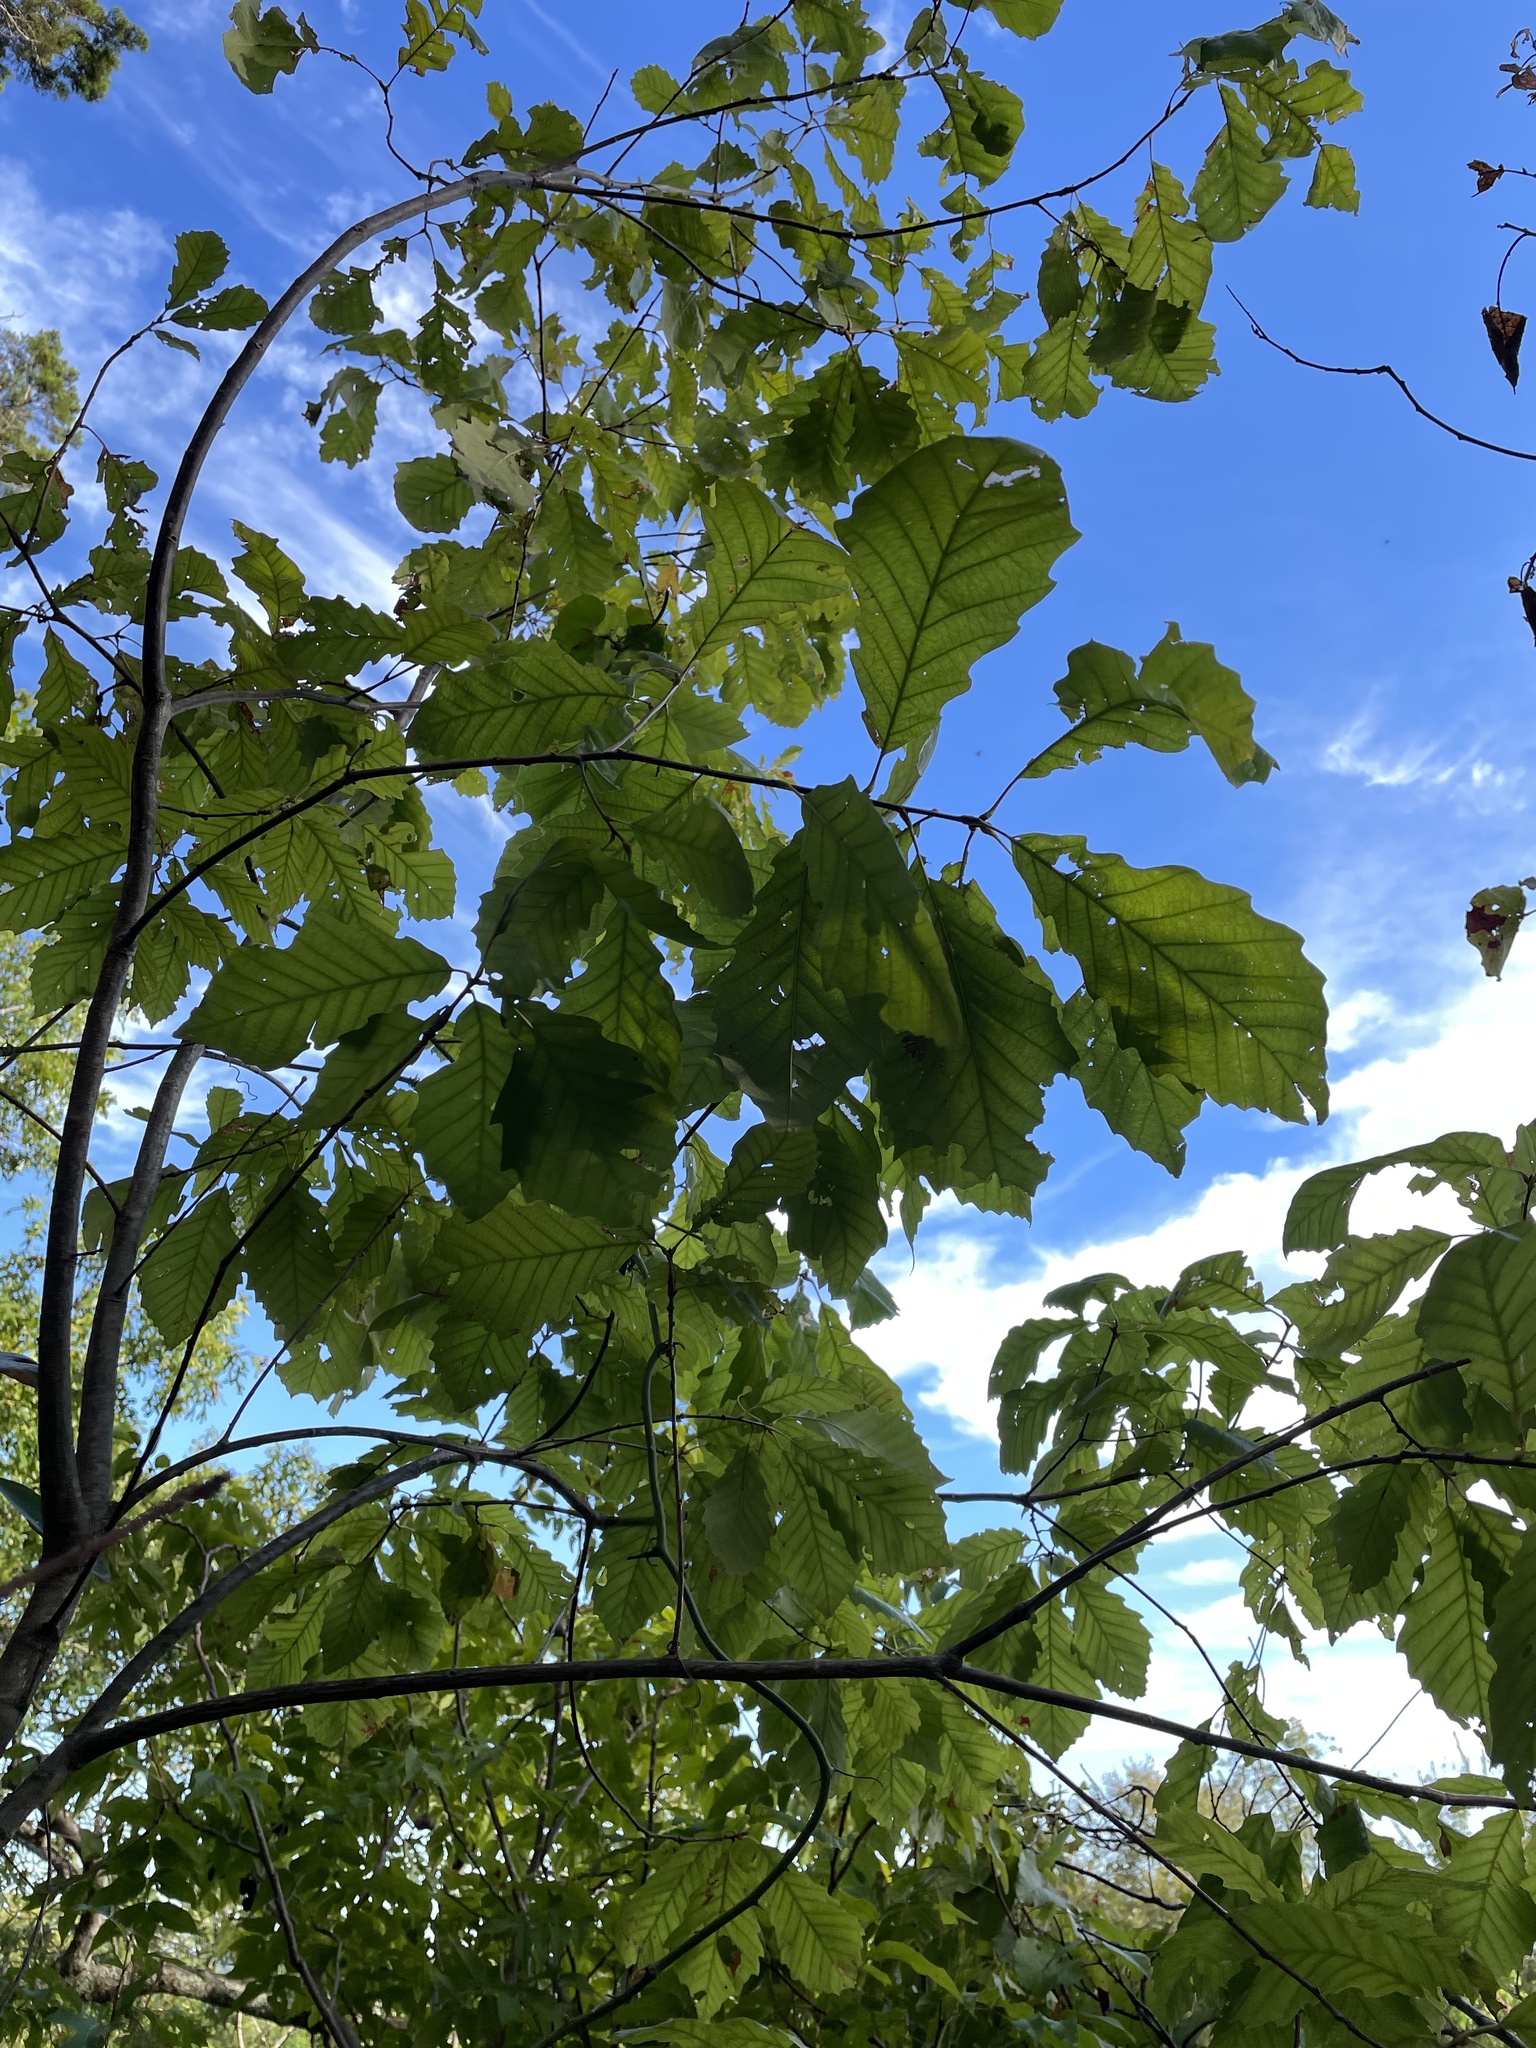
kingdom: Plantae
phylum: Tracheophyta
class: Magnoliopsida
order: Fagales
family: Fagaceae
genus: Quercus
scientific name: Quercus muehlenbergii
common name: Chinkapin oak
